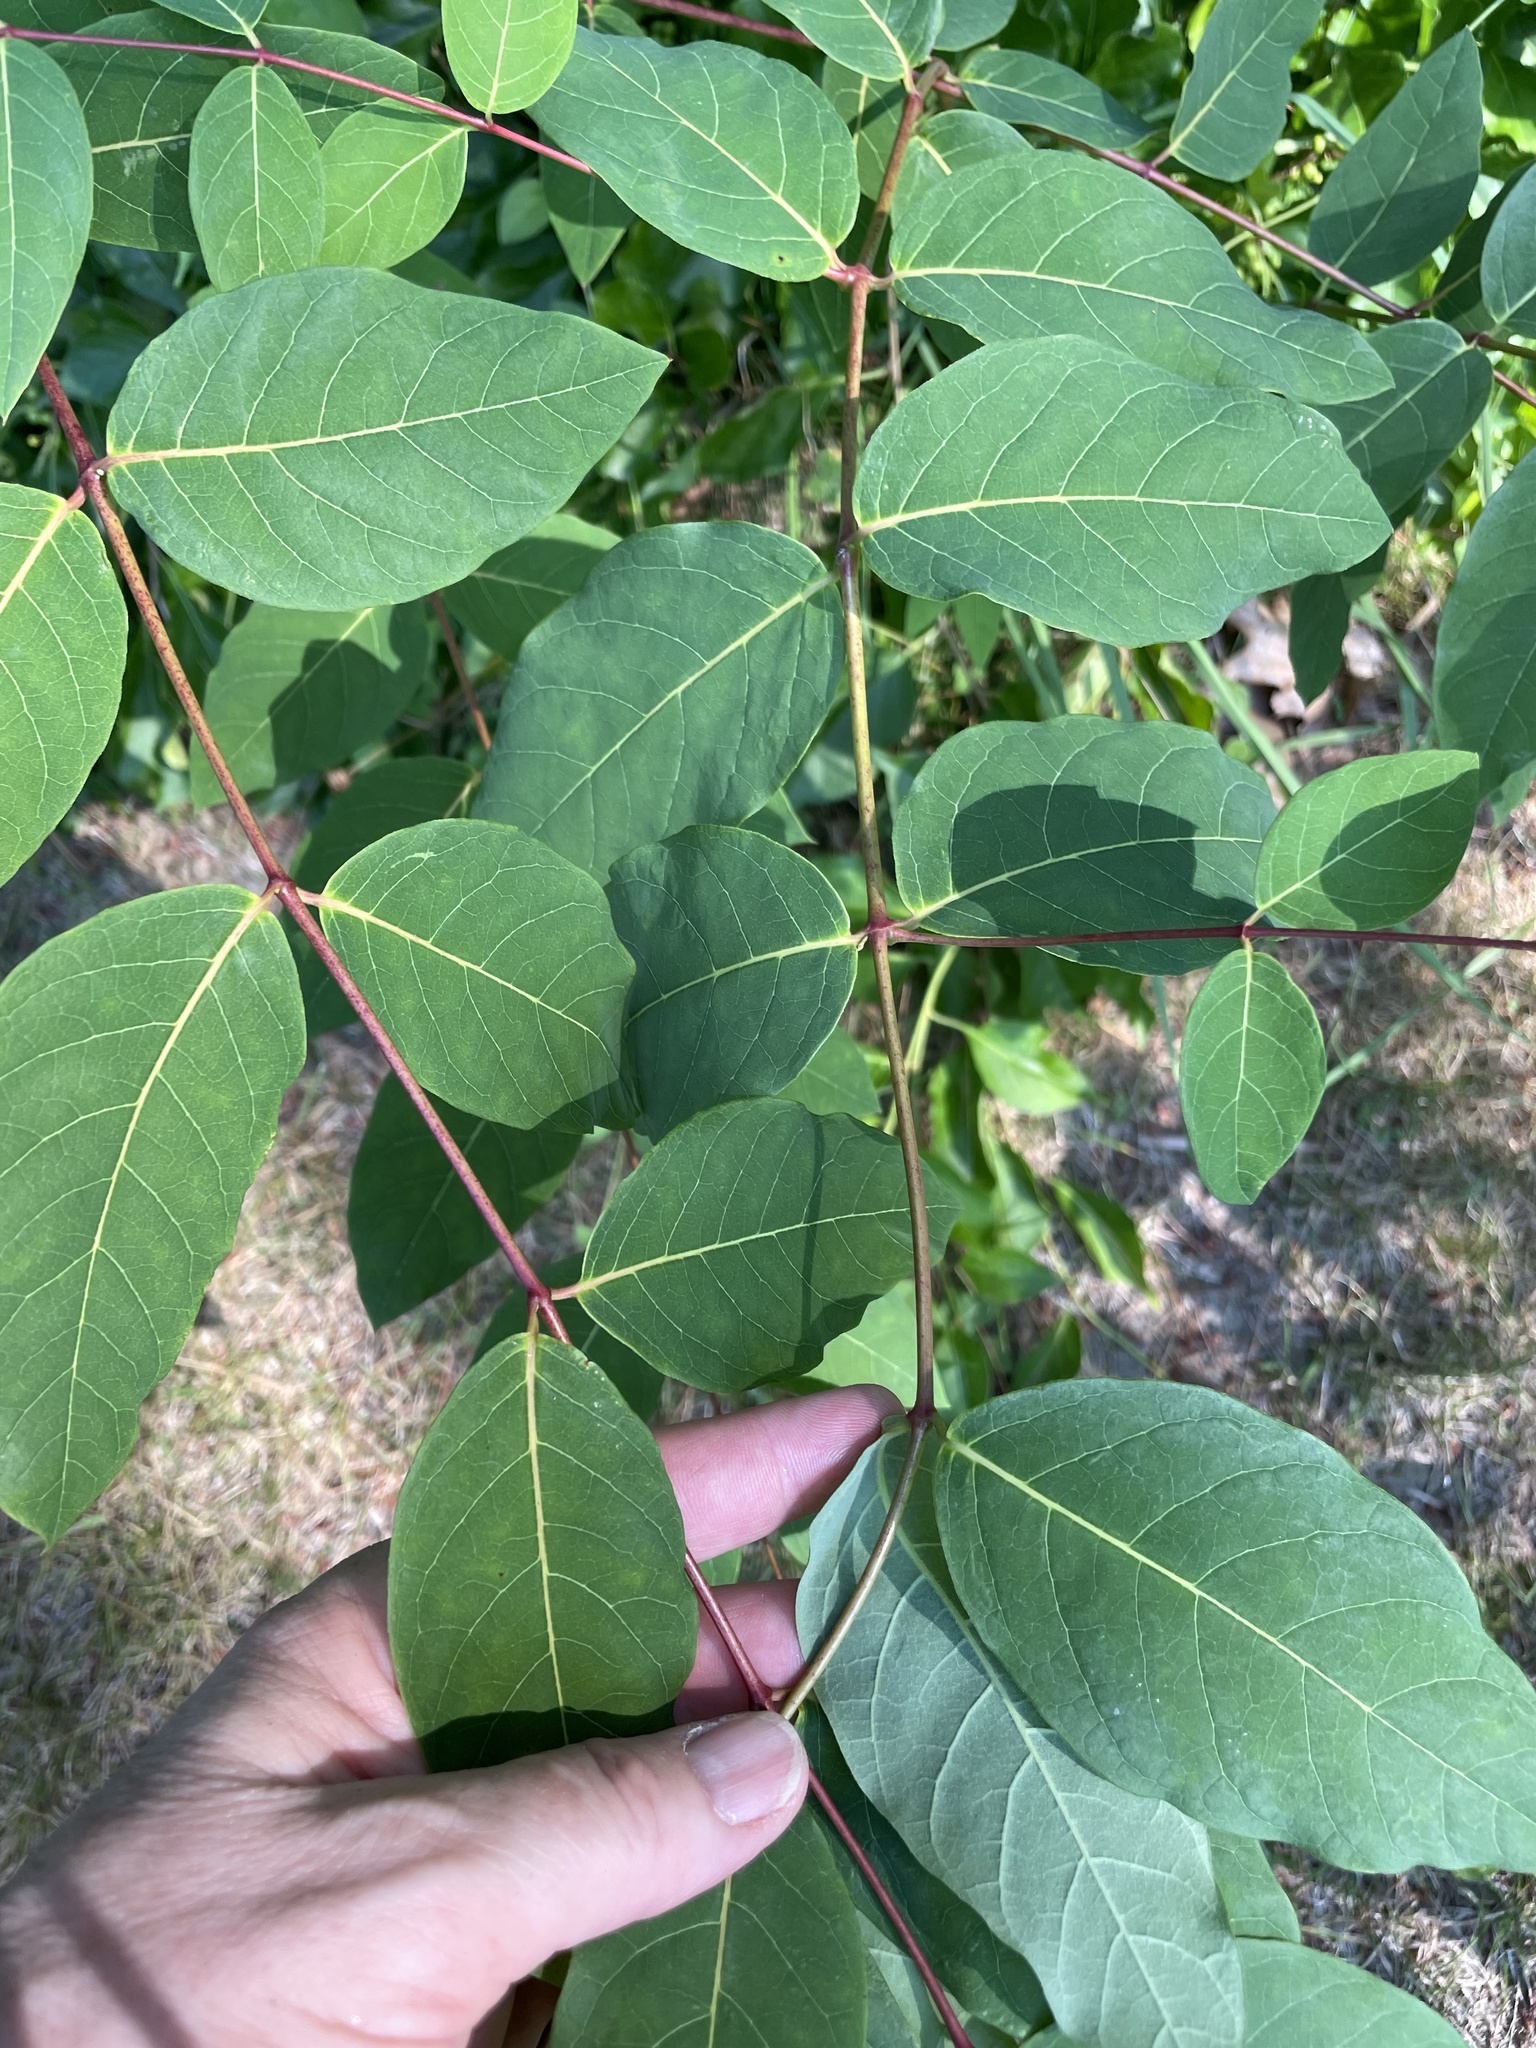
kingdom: Plantae
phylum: Tracheophyta
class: Magnoliopsida
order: Gentianales
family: Apocynaceae
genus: Apocynum
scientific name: Apocynum androsaemifolium
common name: Spreading dogbane
